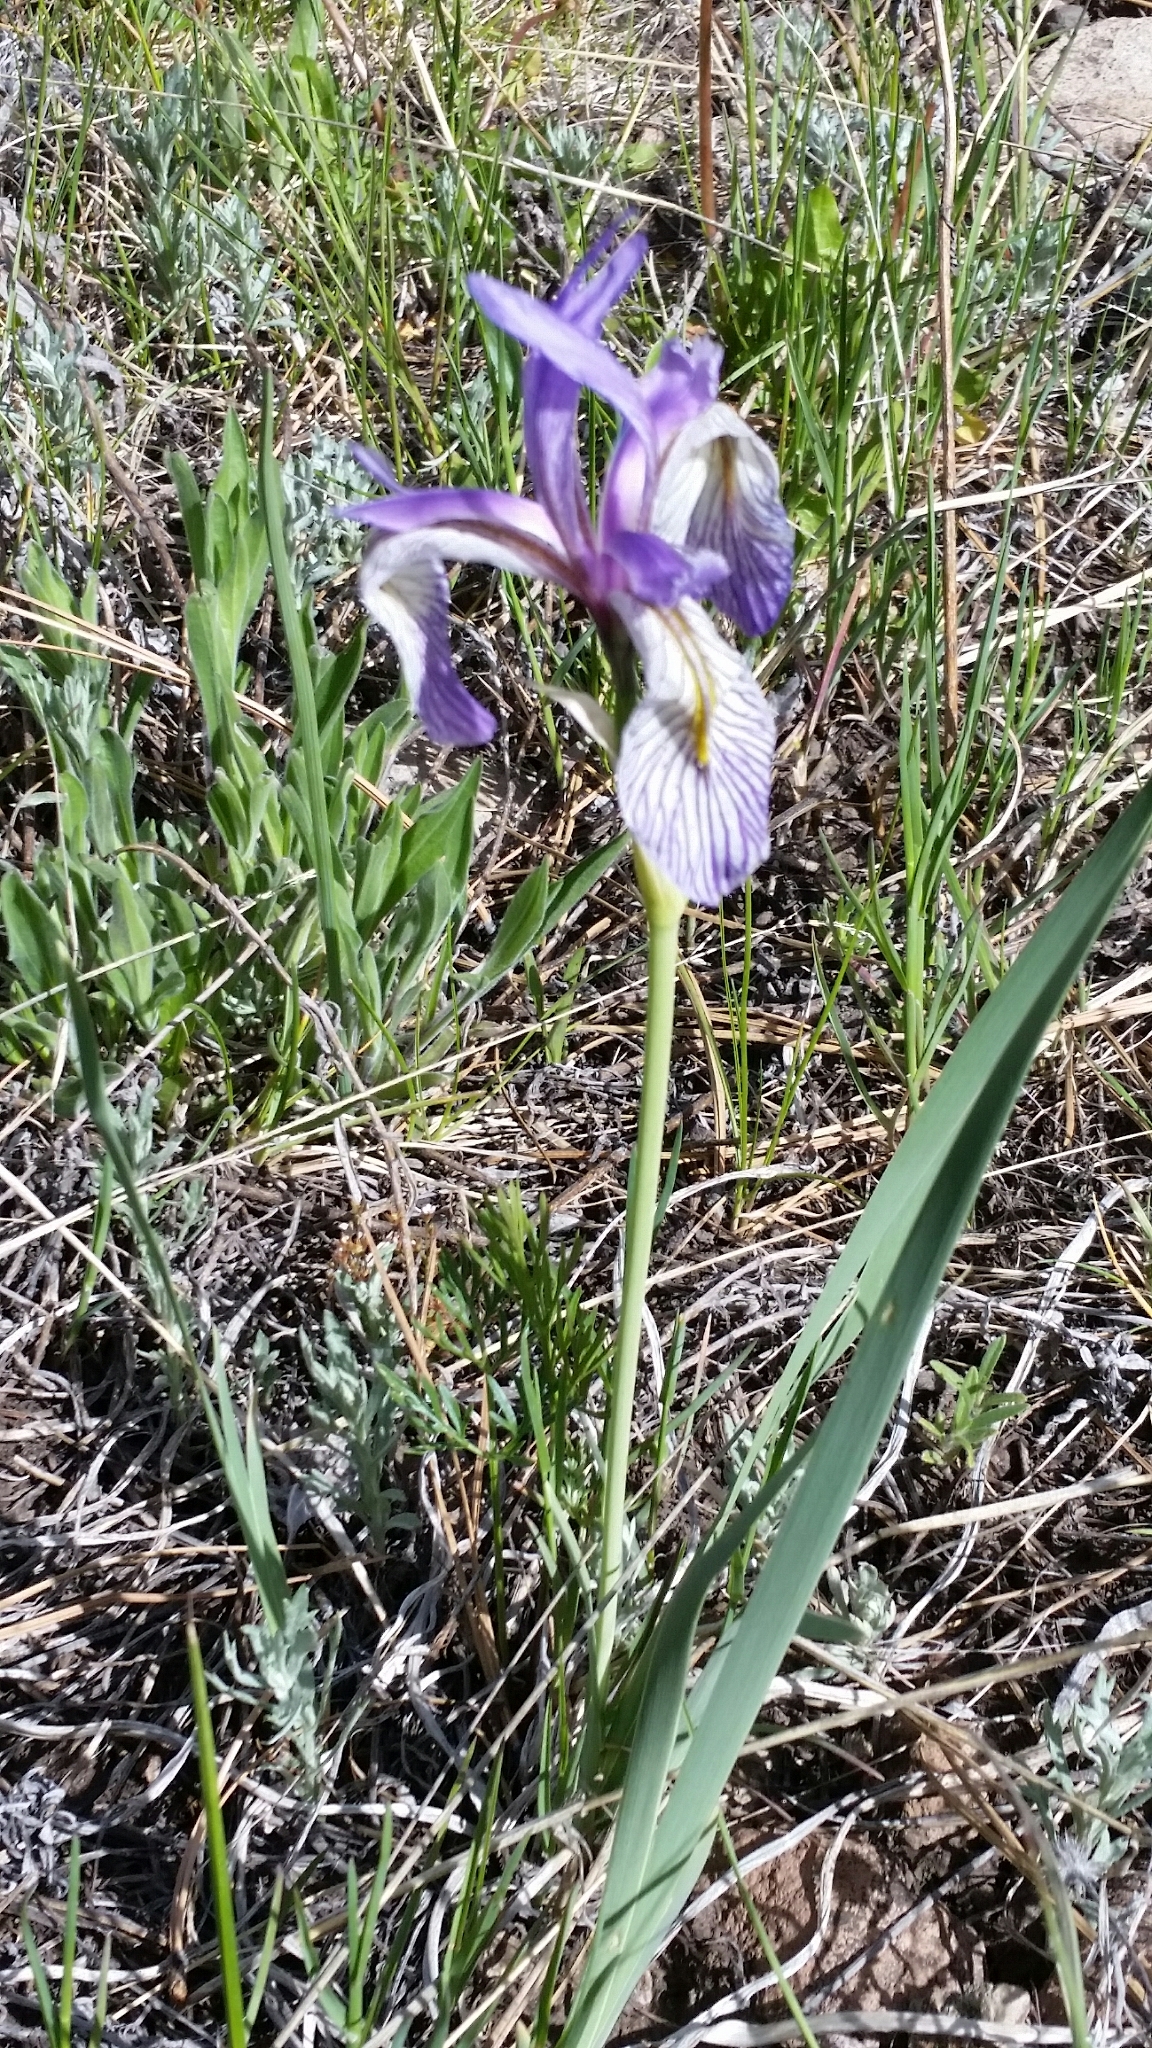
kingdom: Plantae
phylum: Tracheophyta
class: Liliopsida
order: Asparagales
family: Iridaceae
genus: Iris
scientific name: Iris missouriensis
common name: Rocky mountain iris
